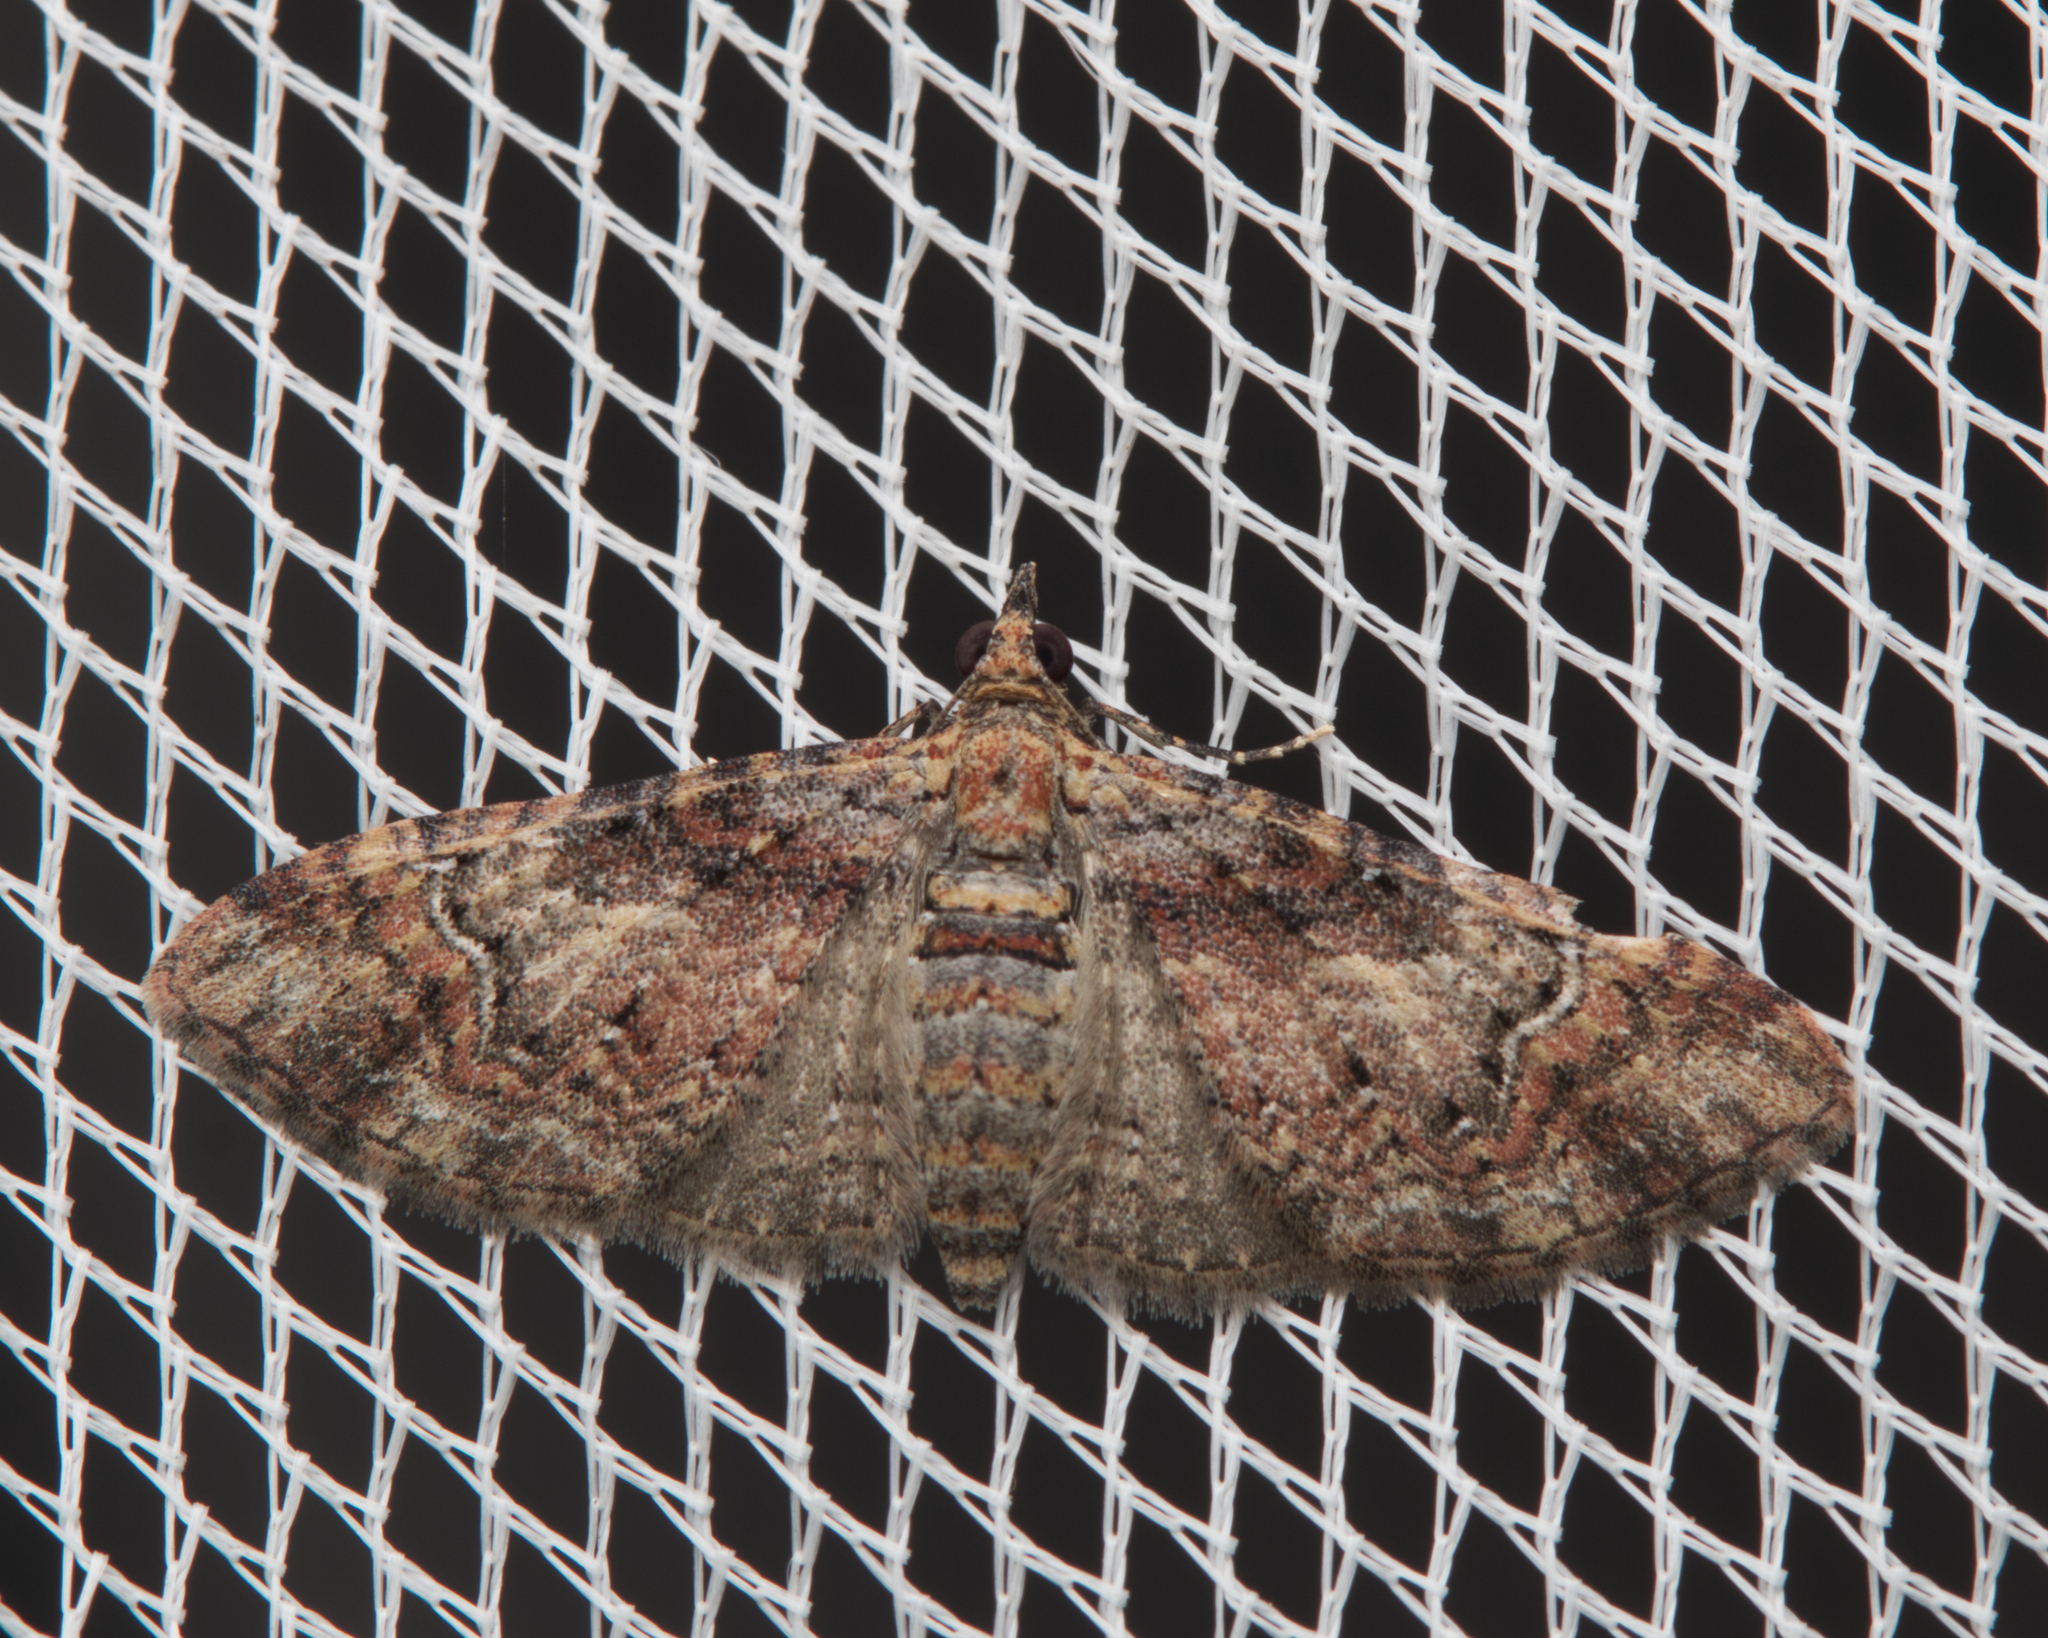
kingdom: Animalia
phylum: Arthropoda
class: Insecta
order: Lepidoptera
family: Geometridae
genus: Mnesiloba
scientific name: Mnesiloba eupitheciata
